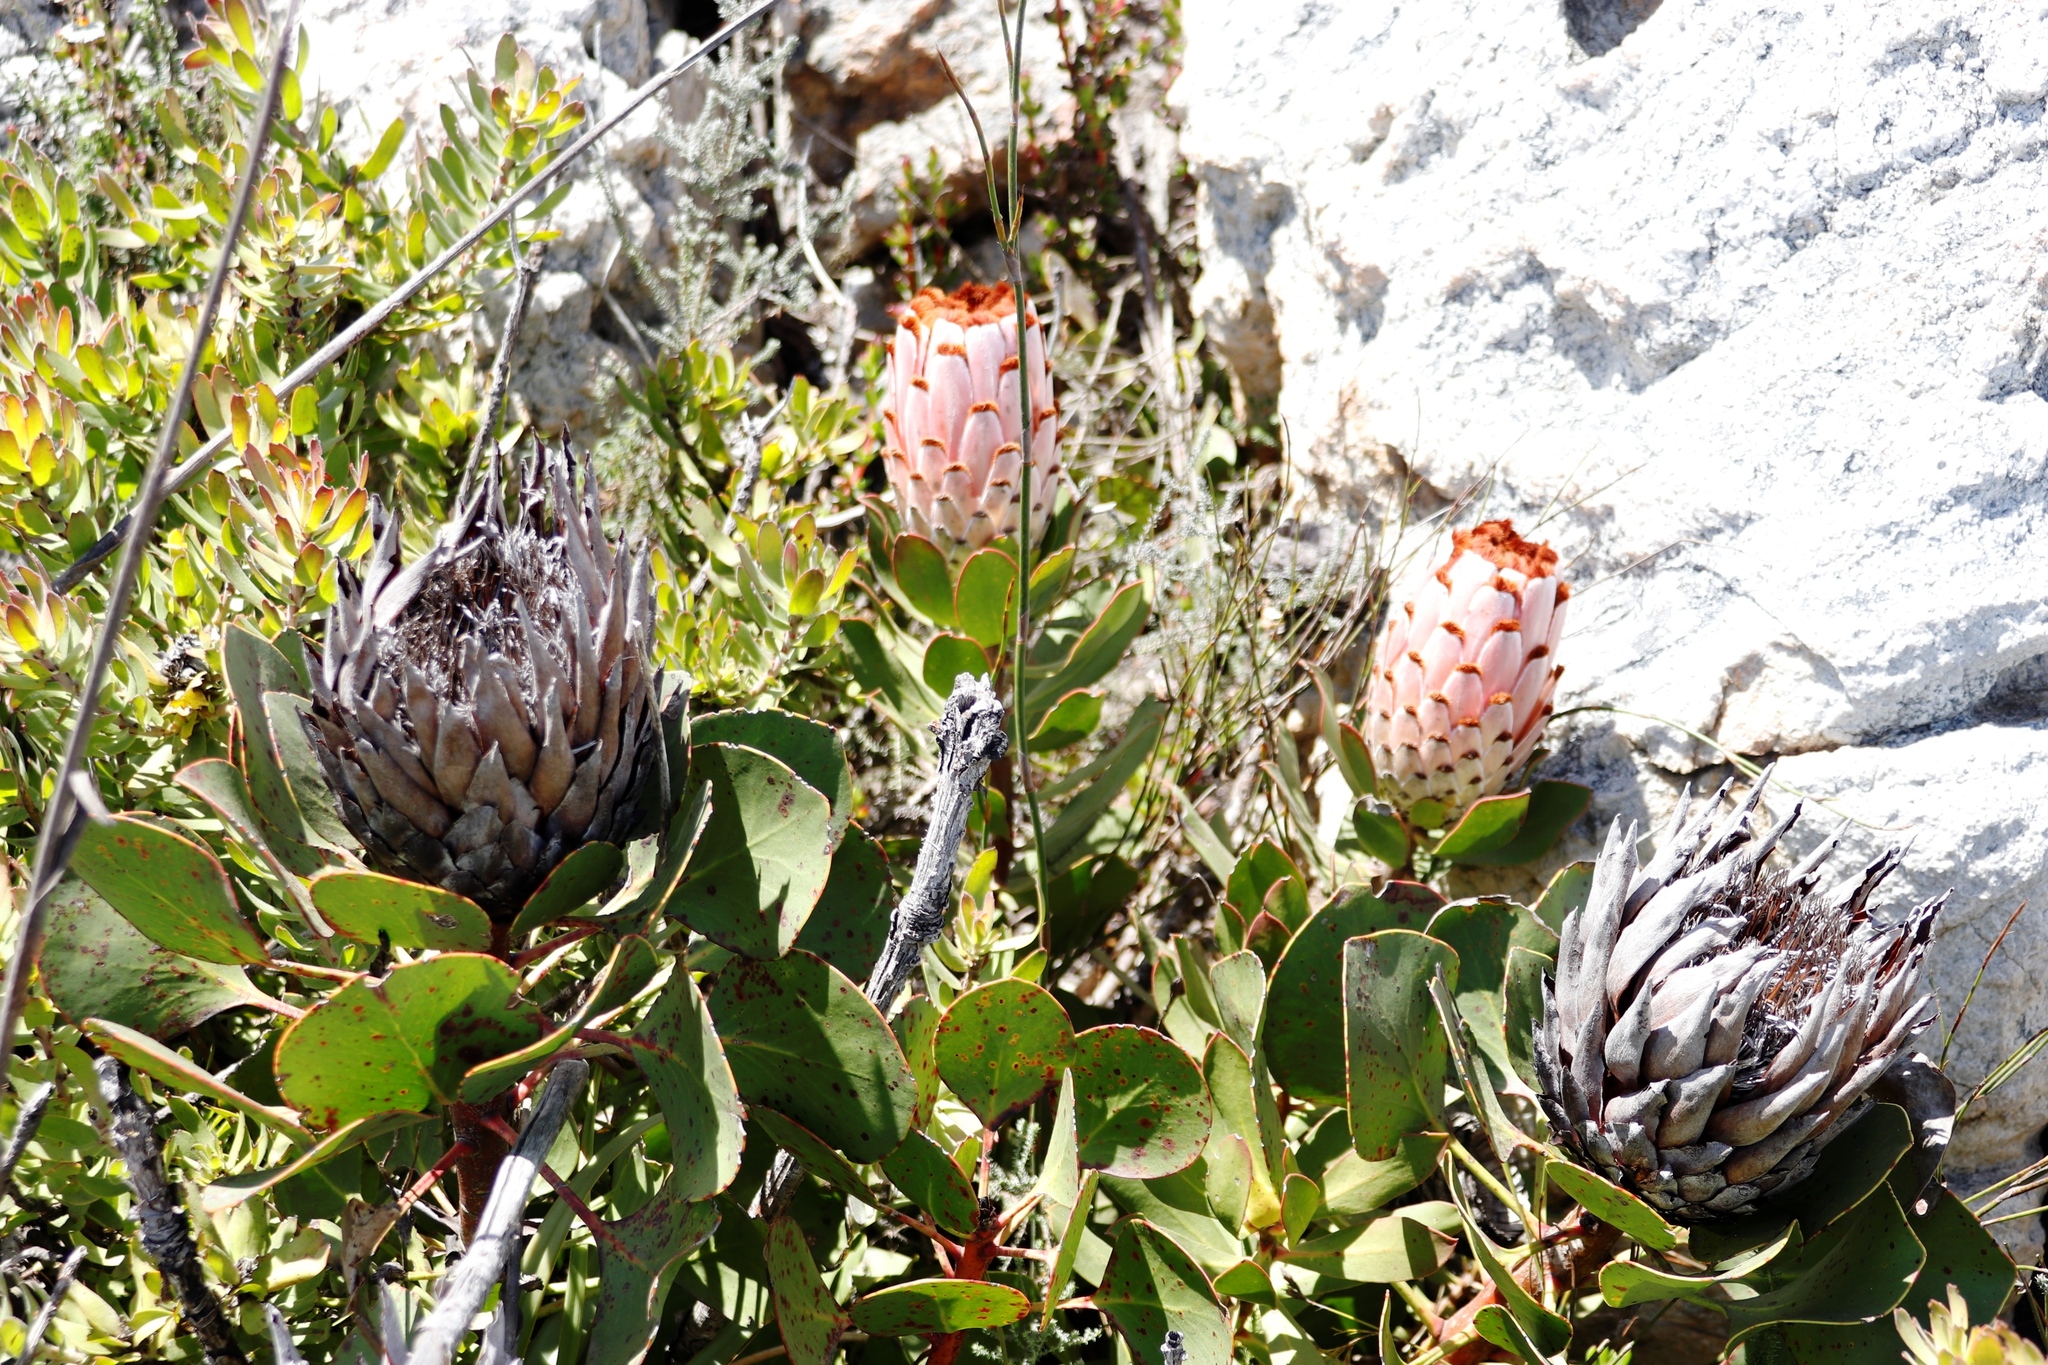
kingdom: Plantae
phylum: Tracheophyta
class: Magnoliopsida
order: Proteales
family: Proteaceae
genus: Protea
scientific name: Protea cynaroides
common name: King protea
